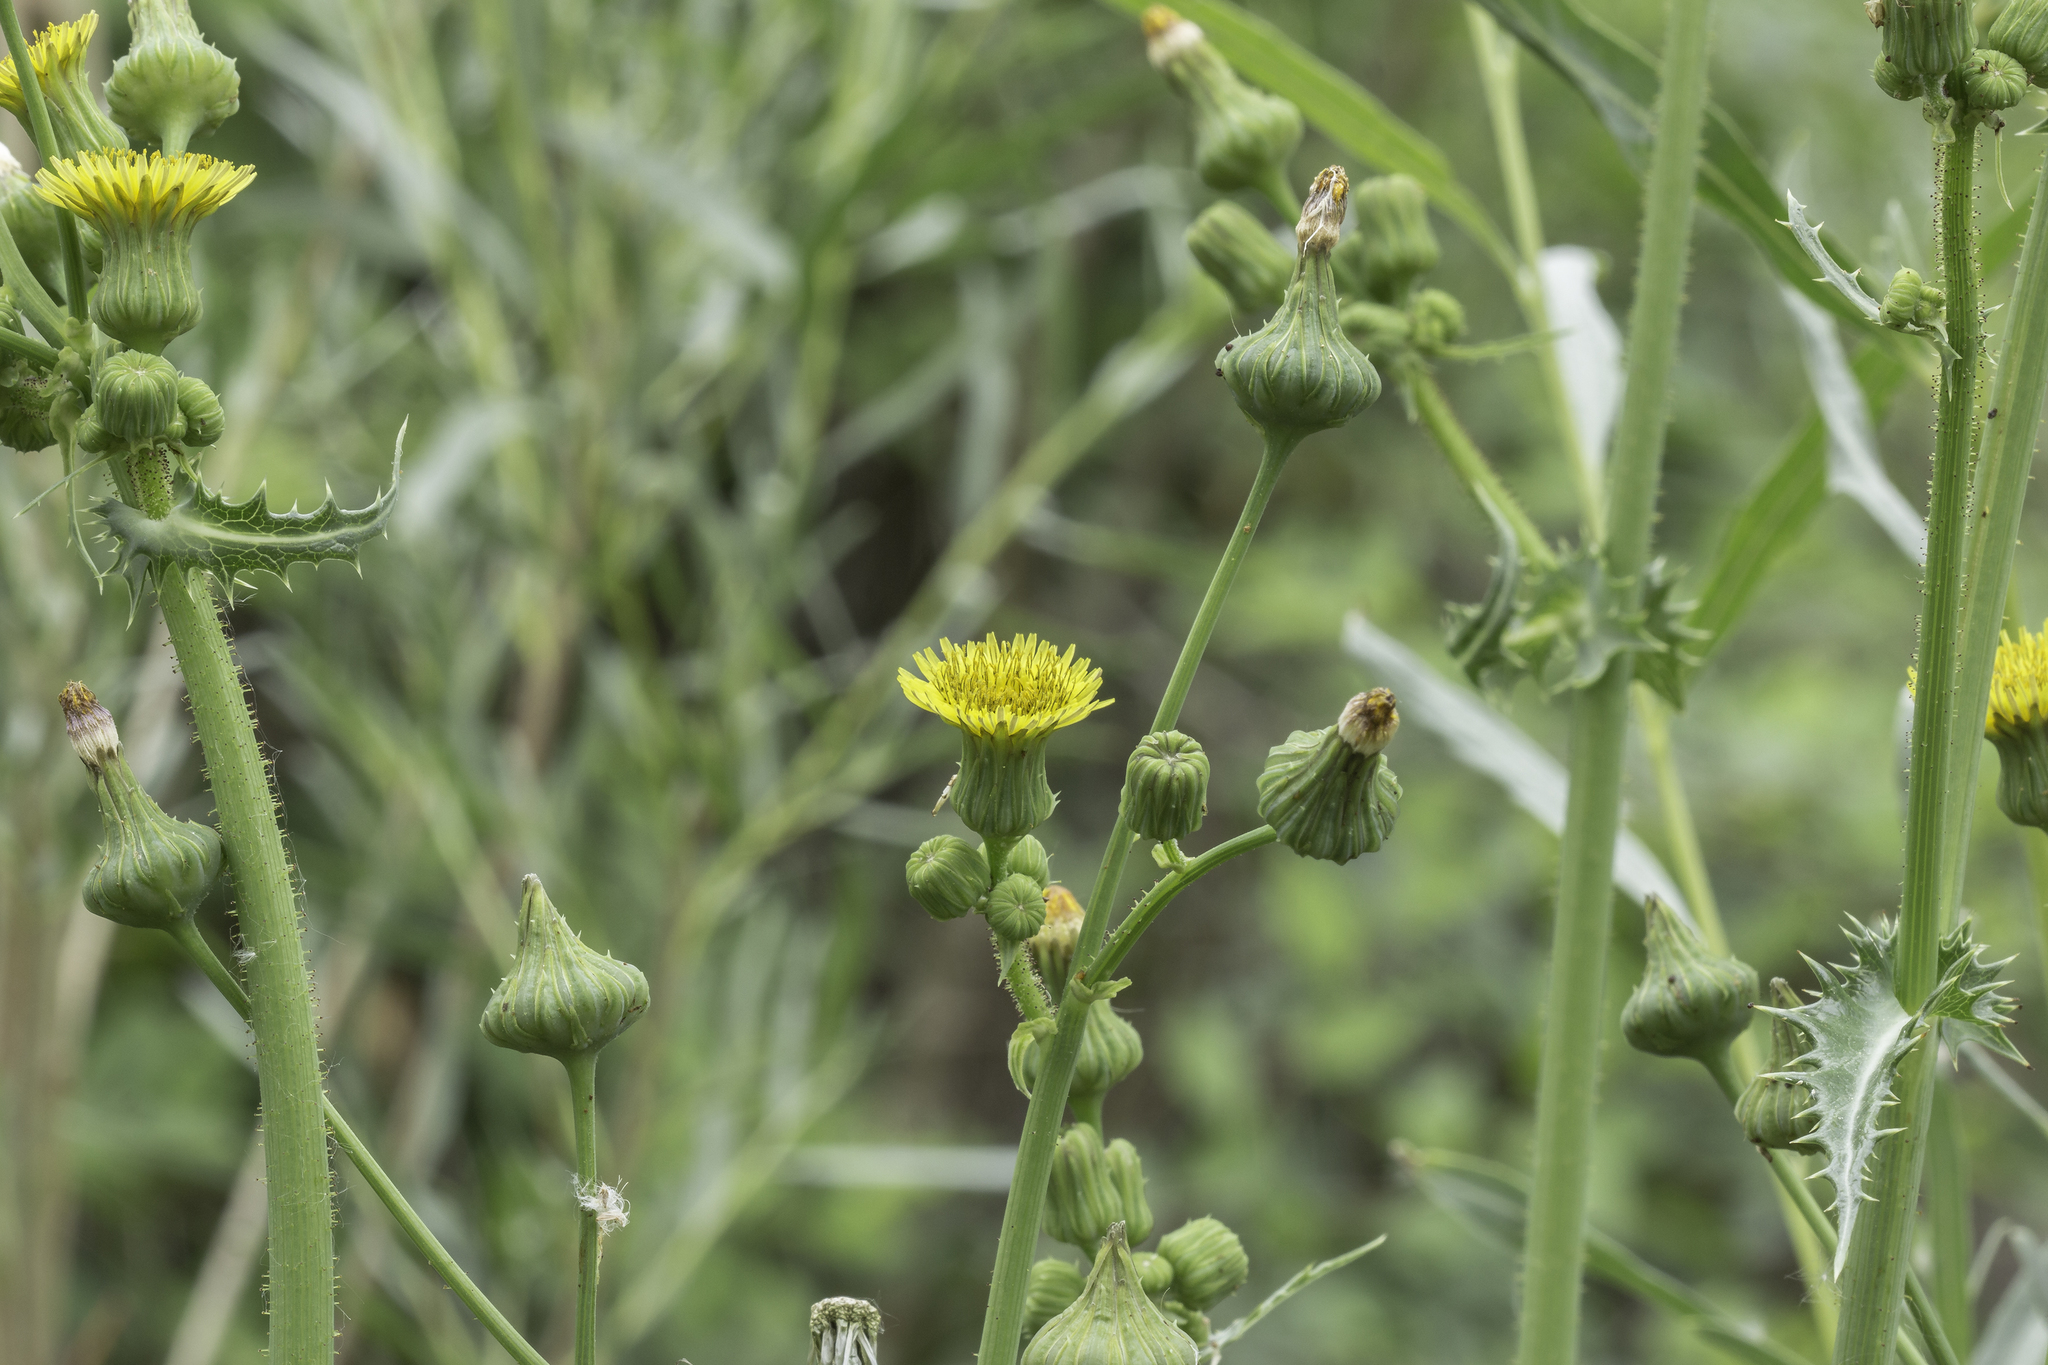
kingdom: Plantae
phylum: Tracheophyta
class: Magnoliopsida
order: Asterales
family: Asteraceae
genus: Sonchus
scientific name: Sonchus asper
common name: Prickly sow-thistle
